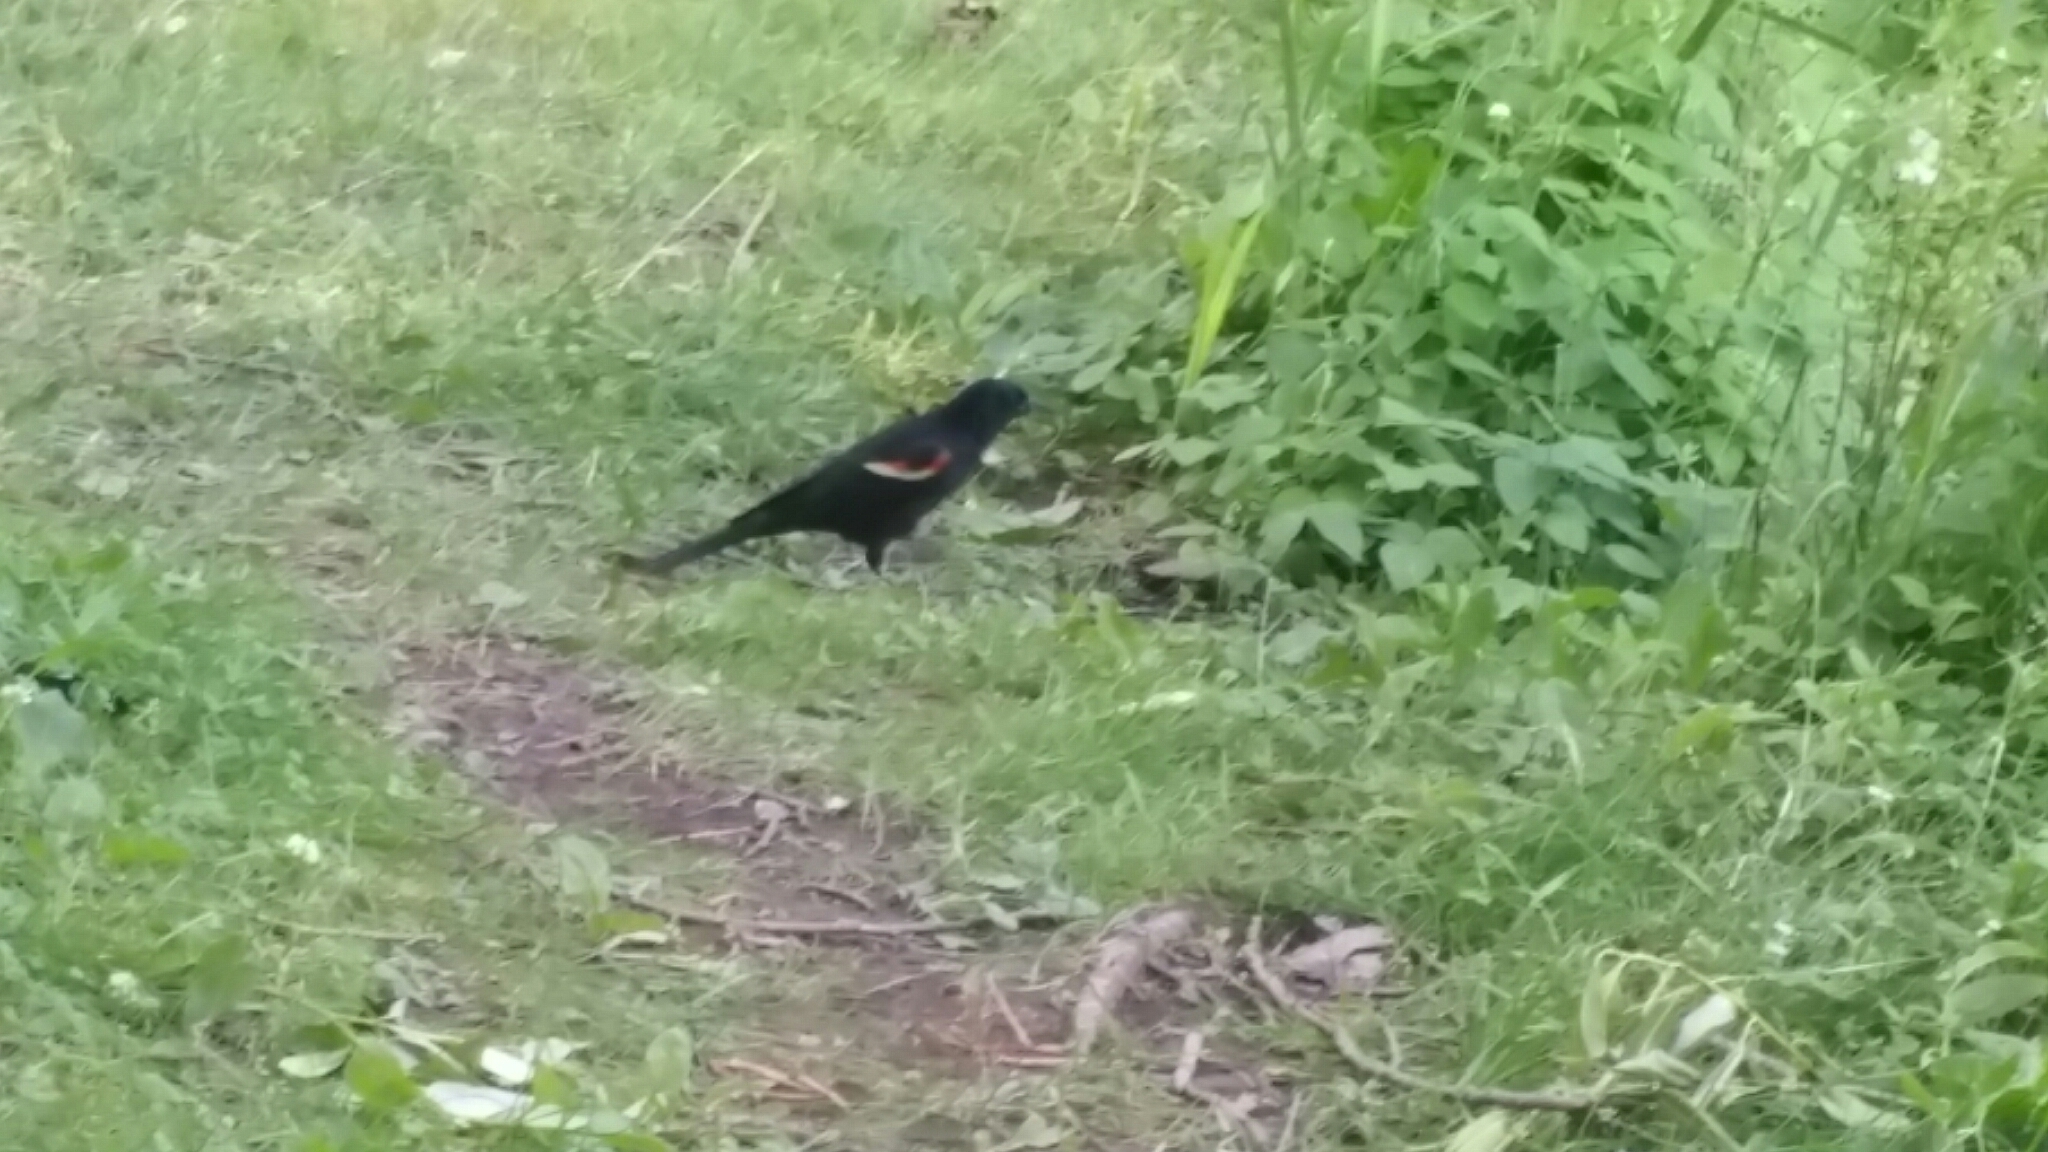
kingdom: Animalia
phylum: Chordata
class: Aves
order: Passeriformes
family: Icteridae
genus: Agelaius
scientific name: Agelaius phoeniceus
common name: Red-winged blackbird
